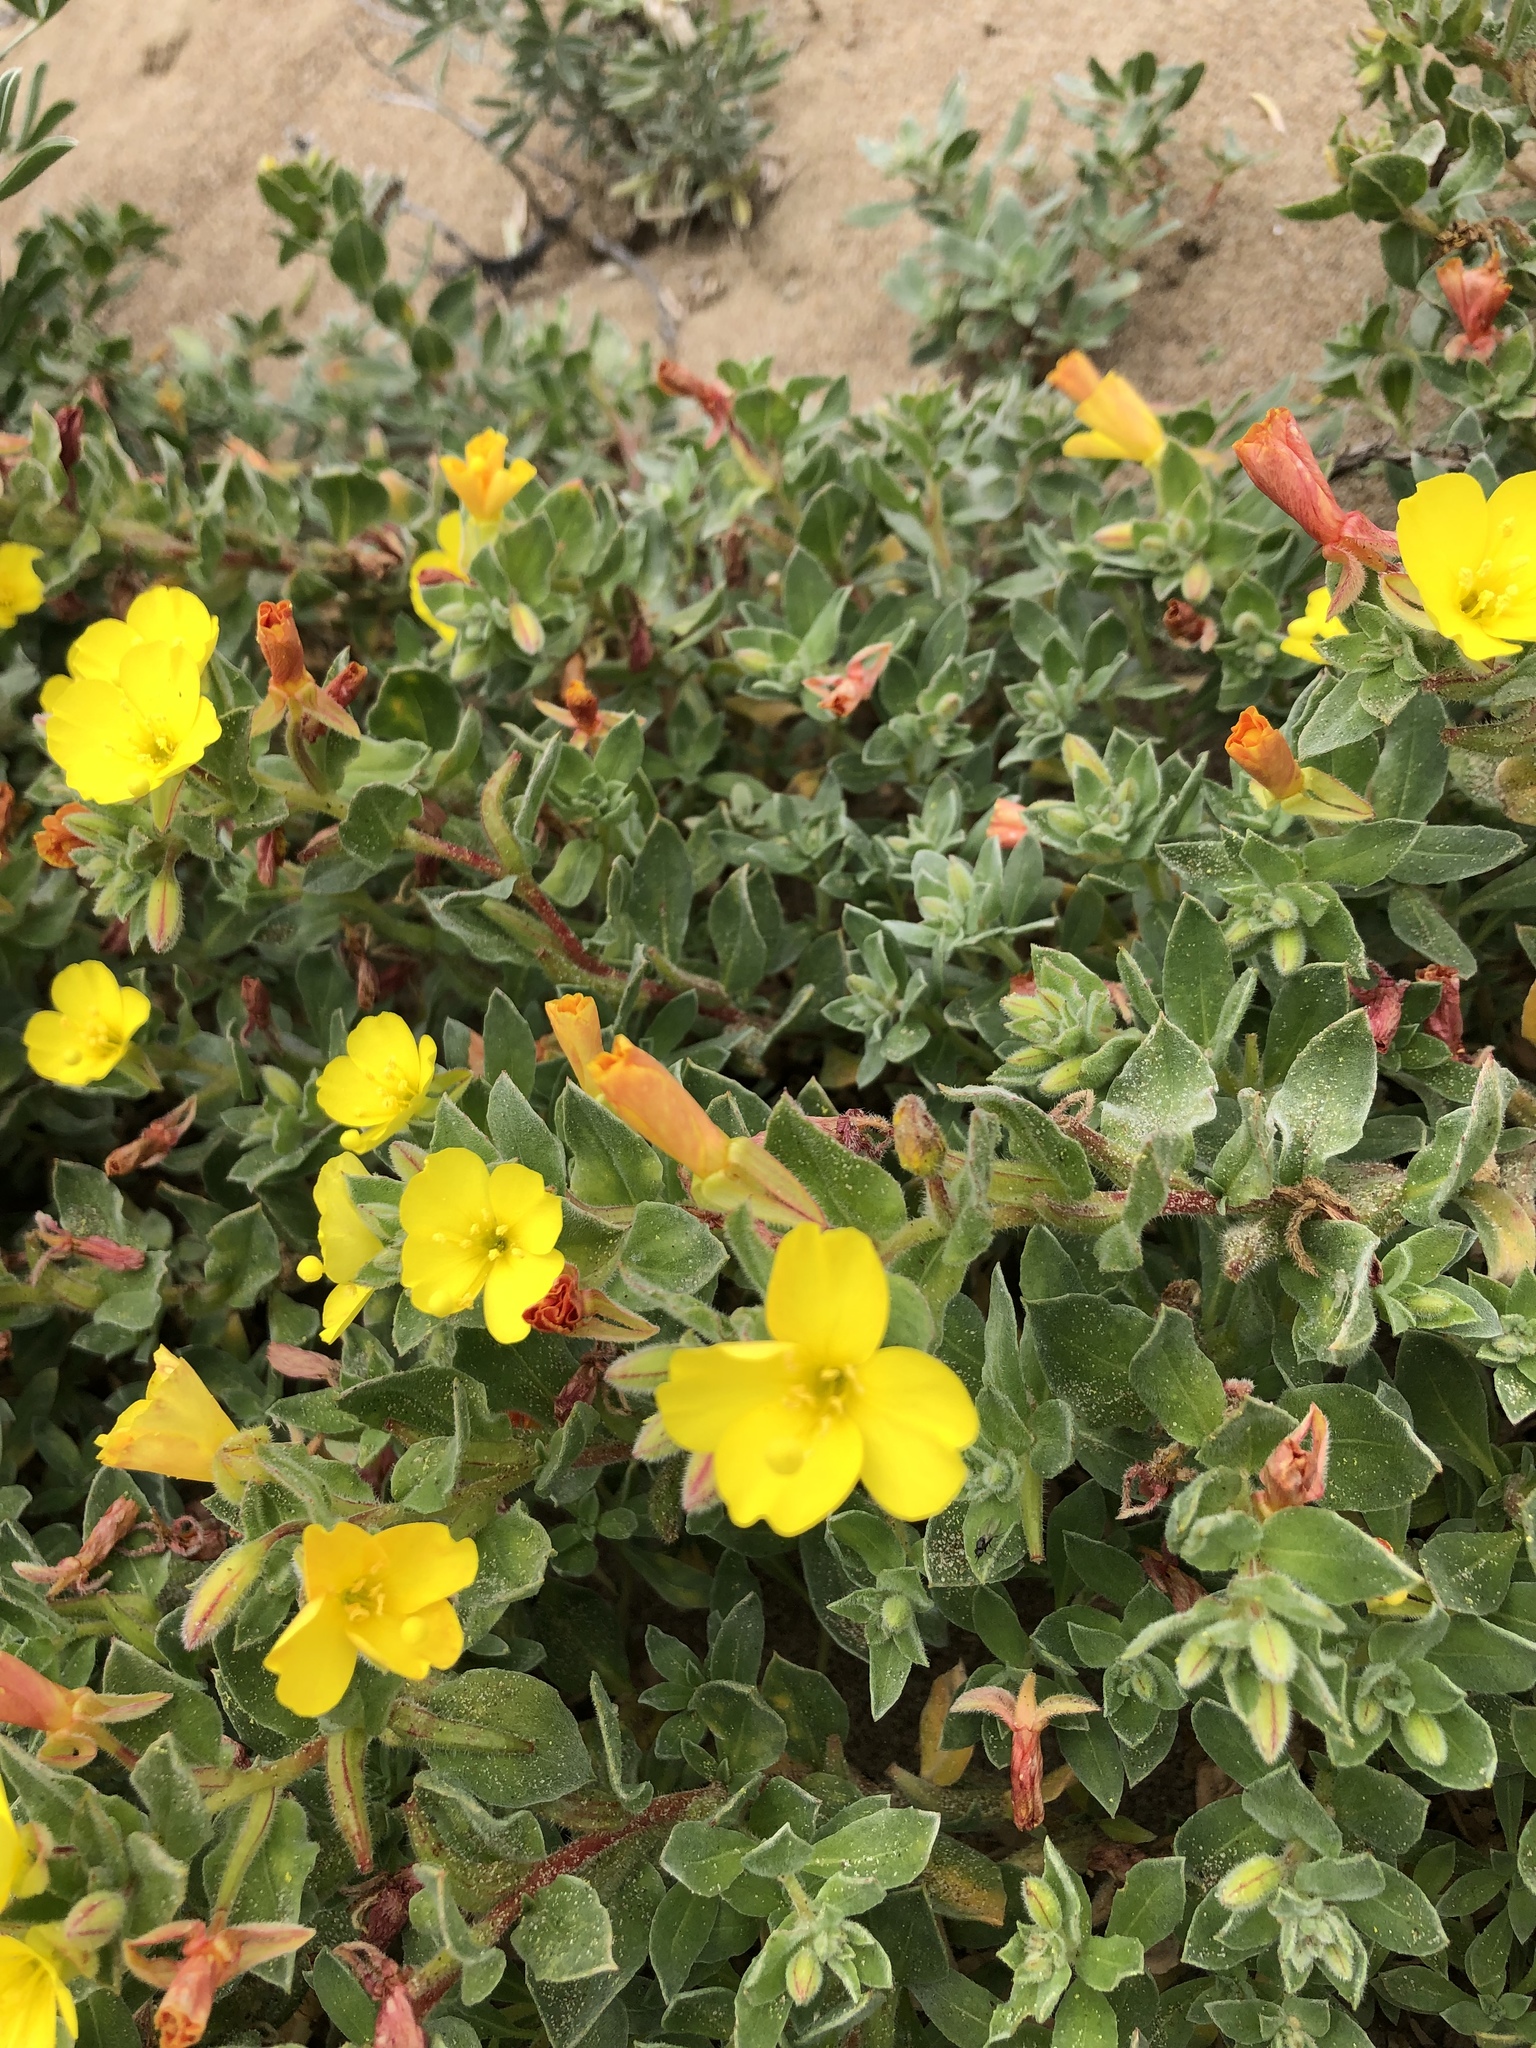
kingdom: Plantae
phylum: Tracheophyta
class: Magnoliopsida
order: Myrtales
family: Onagraceae
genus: Camissoniopsis
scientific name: Camissoniopsis cheiranthifolia
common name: Beach suncup
